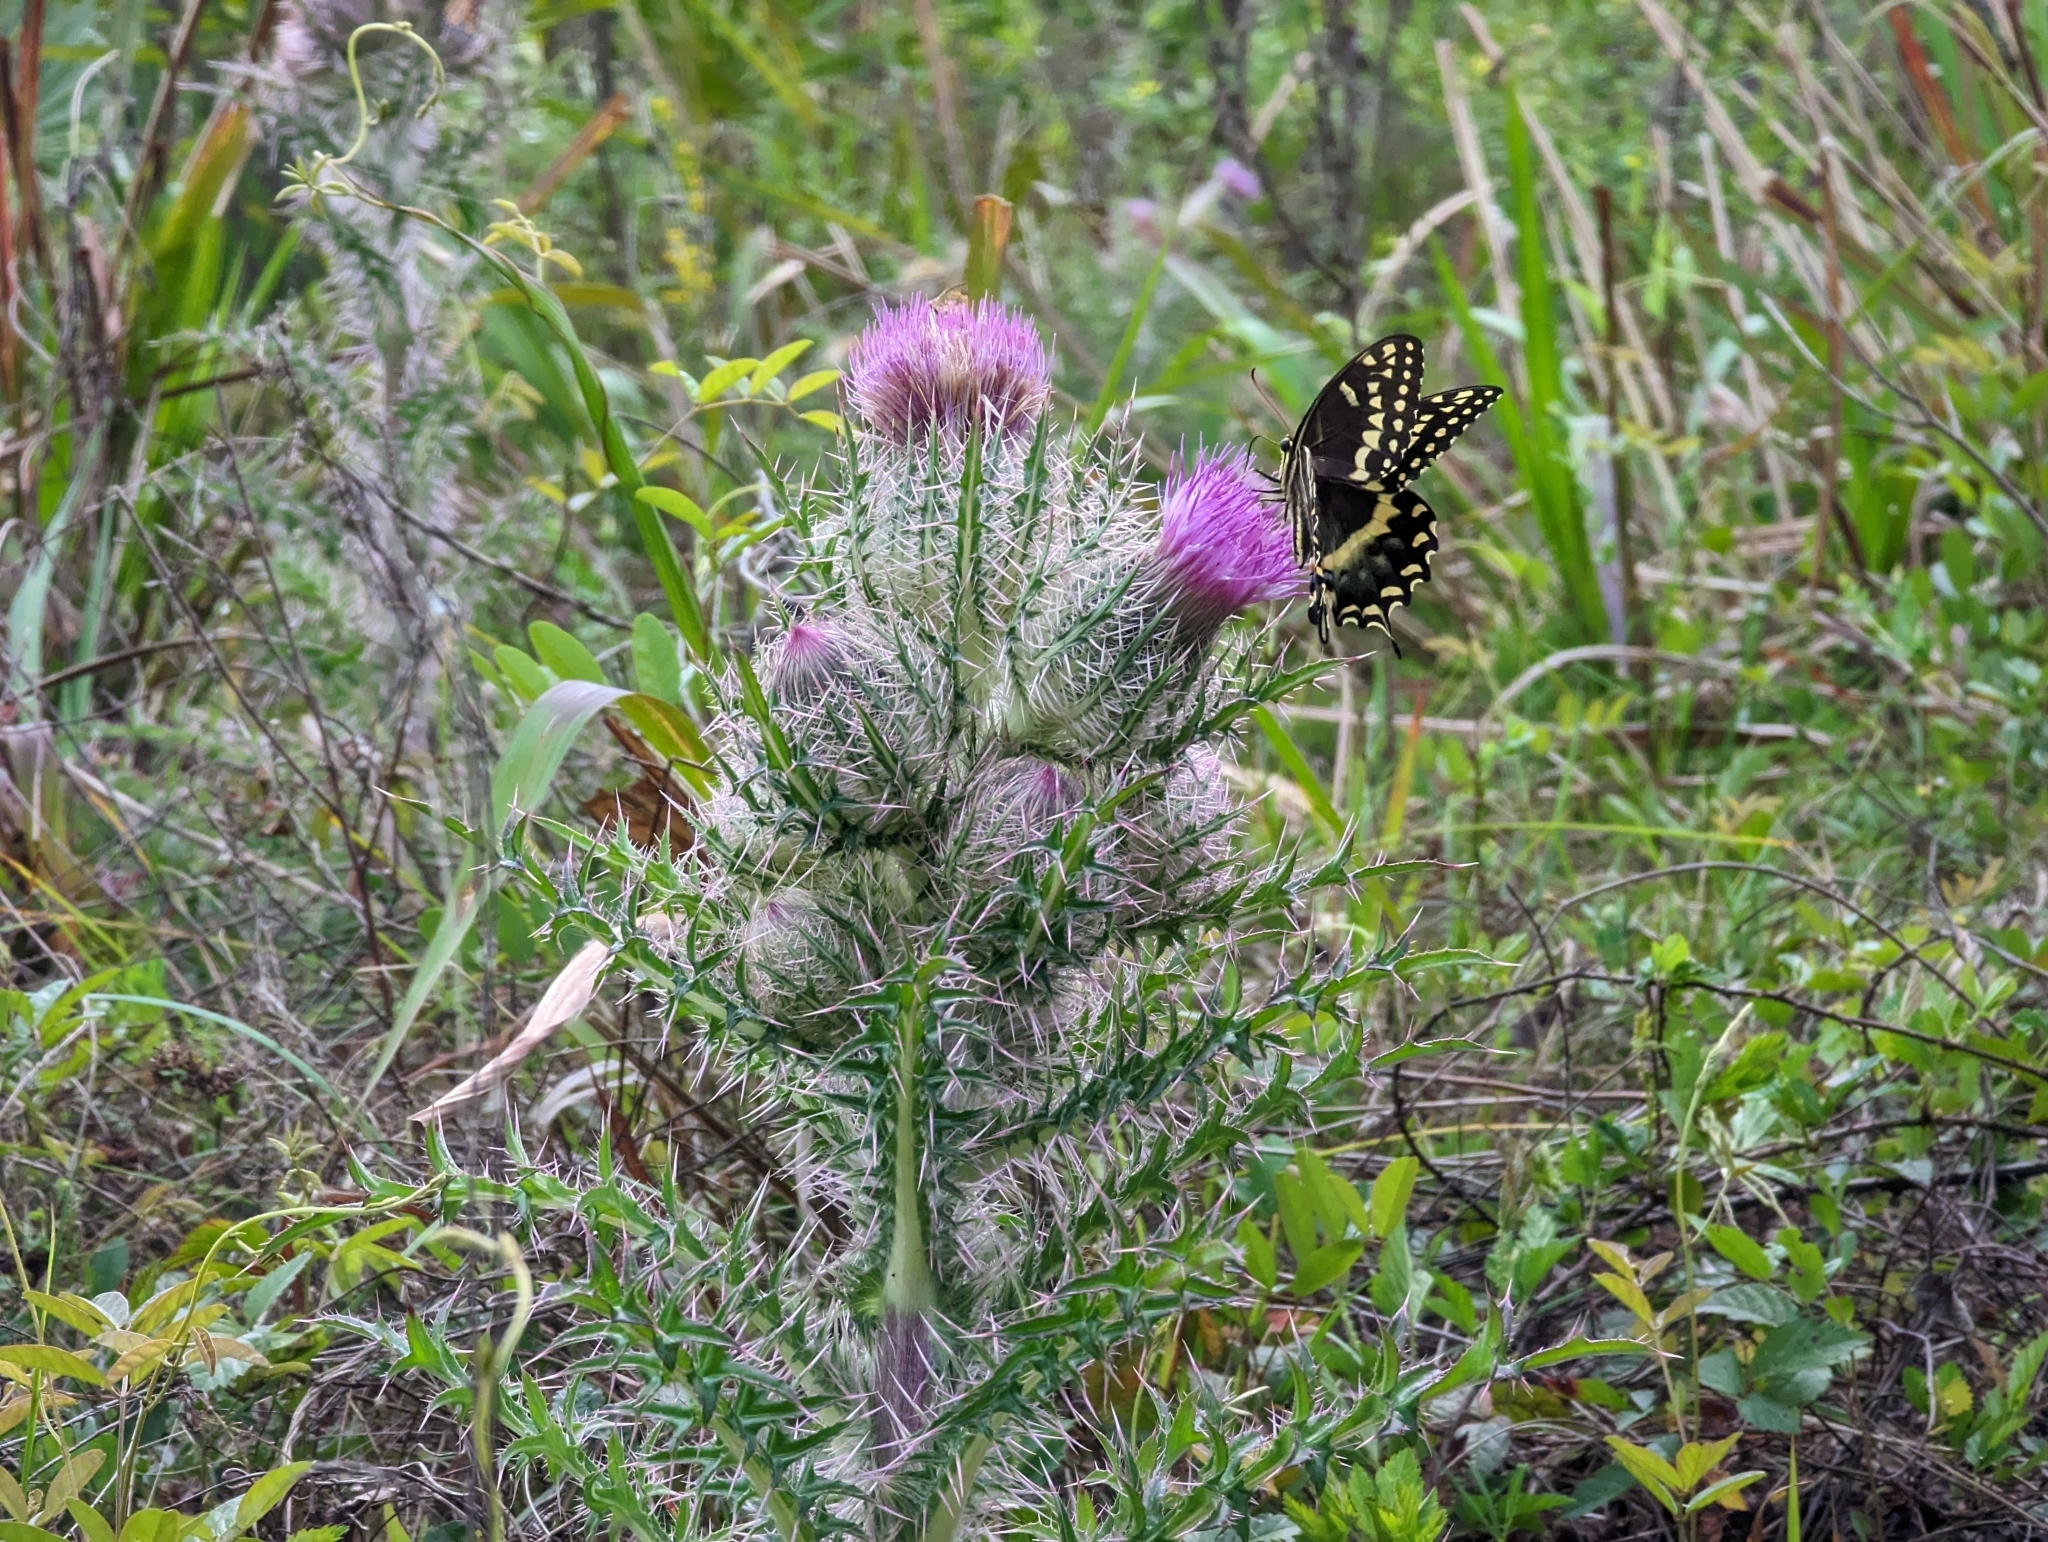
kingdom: Plantae
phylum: Tracheophyta
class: Magnoliopsida
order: Asterales
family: Asteraceae
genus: Cirsium
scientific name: Cirsium horridulum
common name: Bristly thistle
